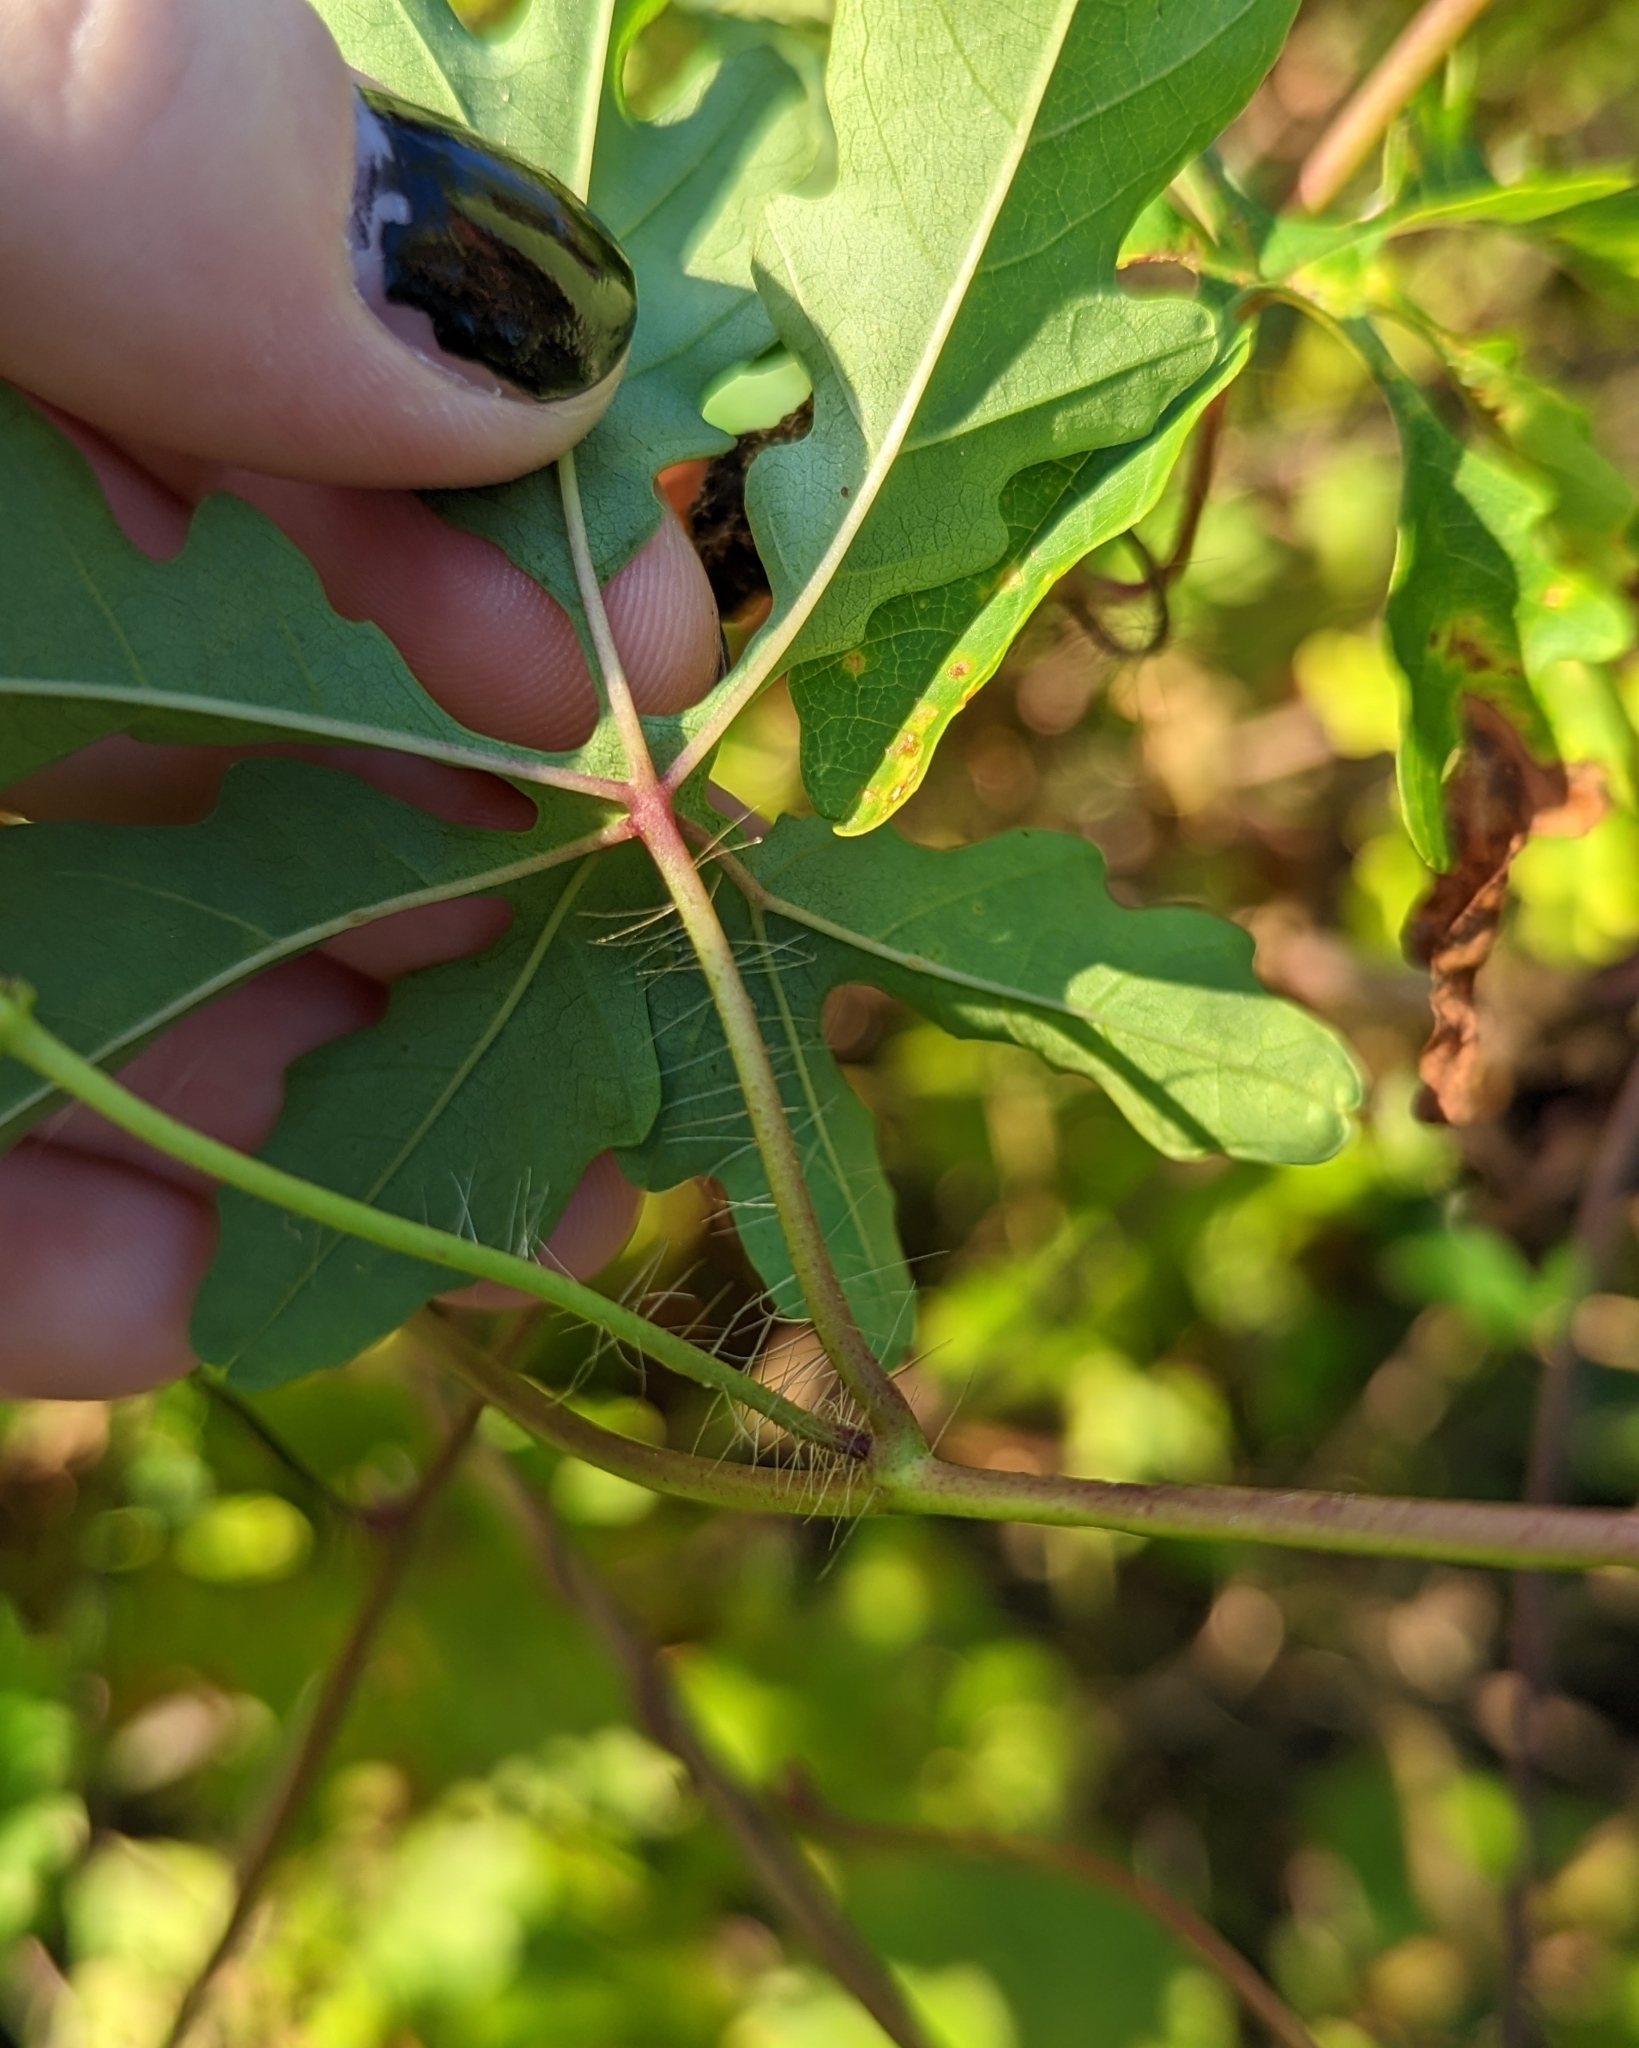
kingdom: Plantae
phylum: Tracheophyta
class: Magnoliopsida
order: Solanales
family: Convolvulaceae
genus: Distimake
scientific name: Distimake dissectus
